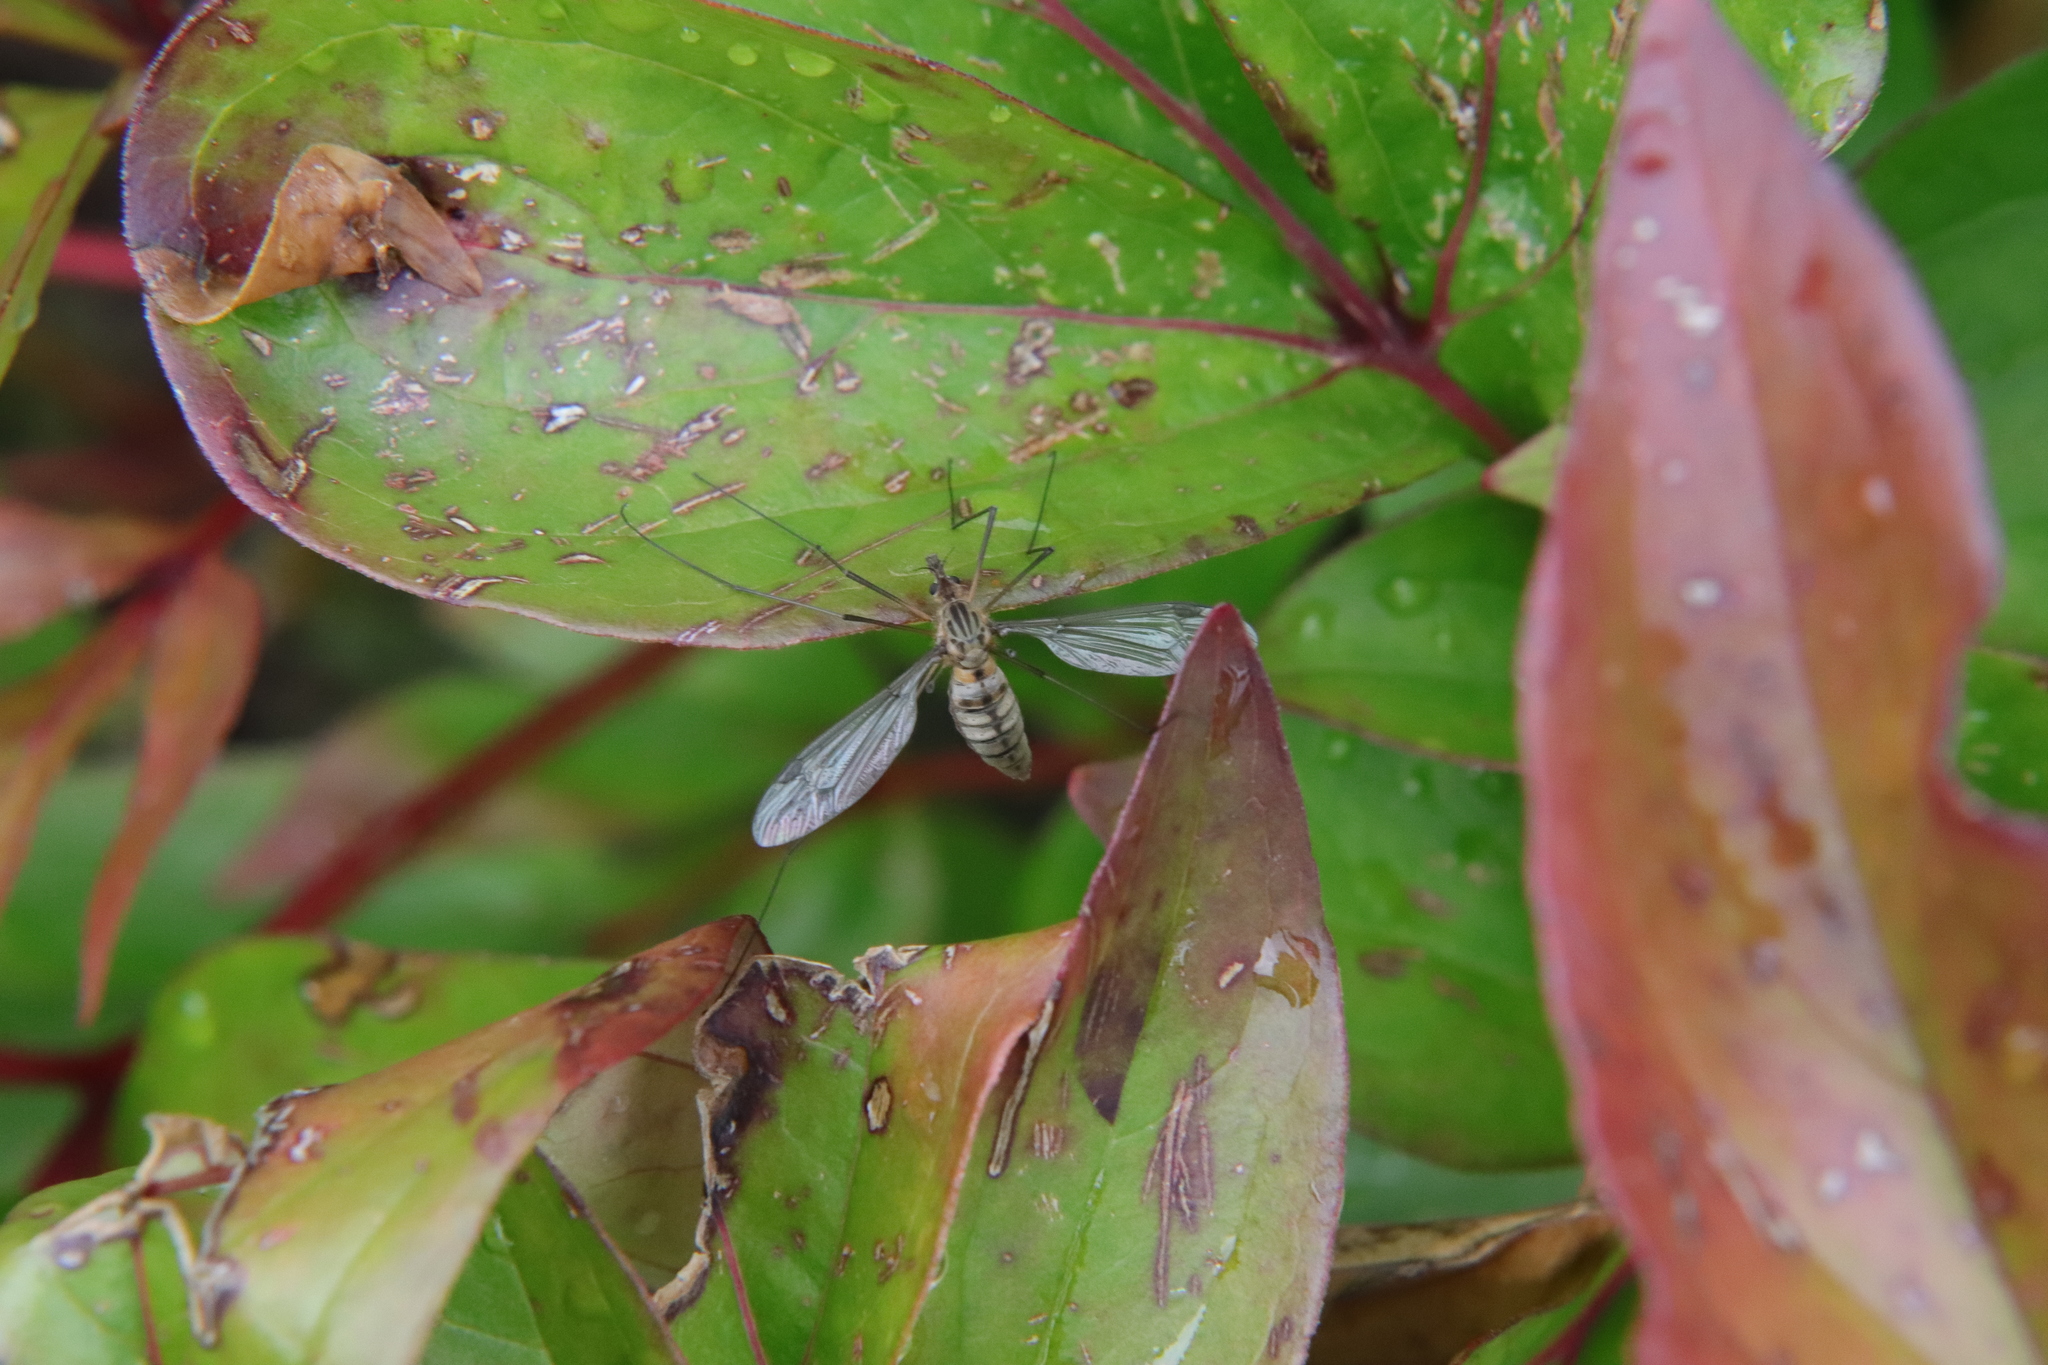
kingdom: Animalia
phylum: Arthropoda
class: Insecta
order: Diptera
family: Tipulidae
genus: Leptotarsus
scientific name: Leptotarsus vulpinus
